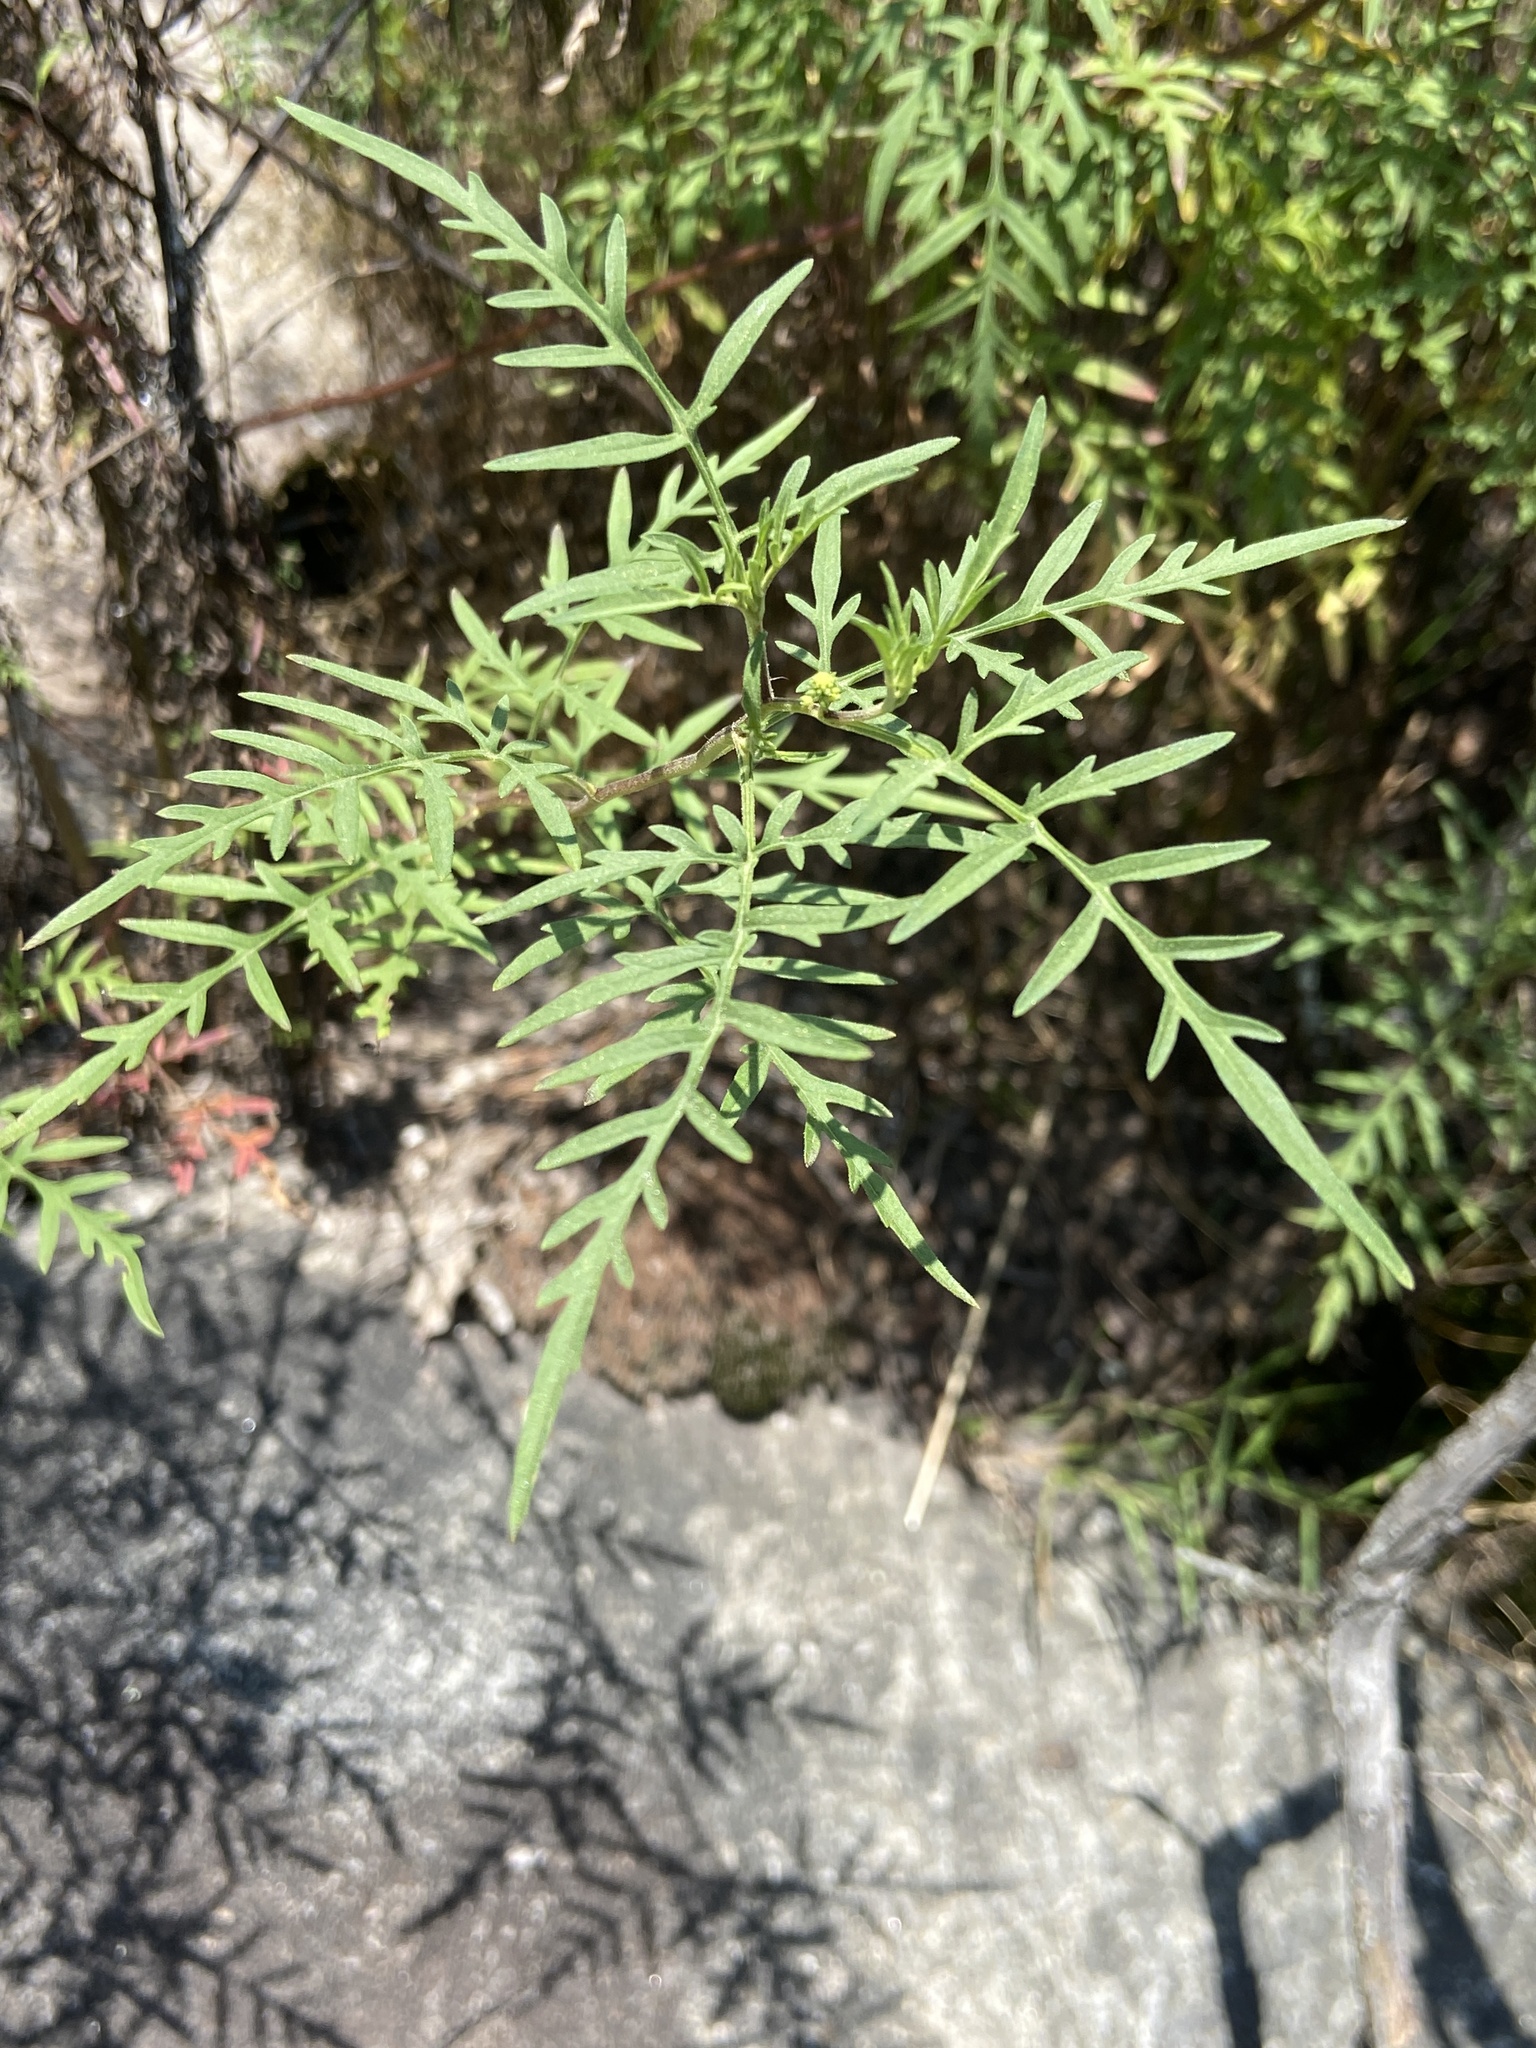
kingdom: Plantae
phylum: Tracheophyta
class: Magnoliopsida
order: Asterales
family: Asteraceae
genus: Ambrosia
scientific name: Ambrosia porcheri
